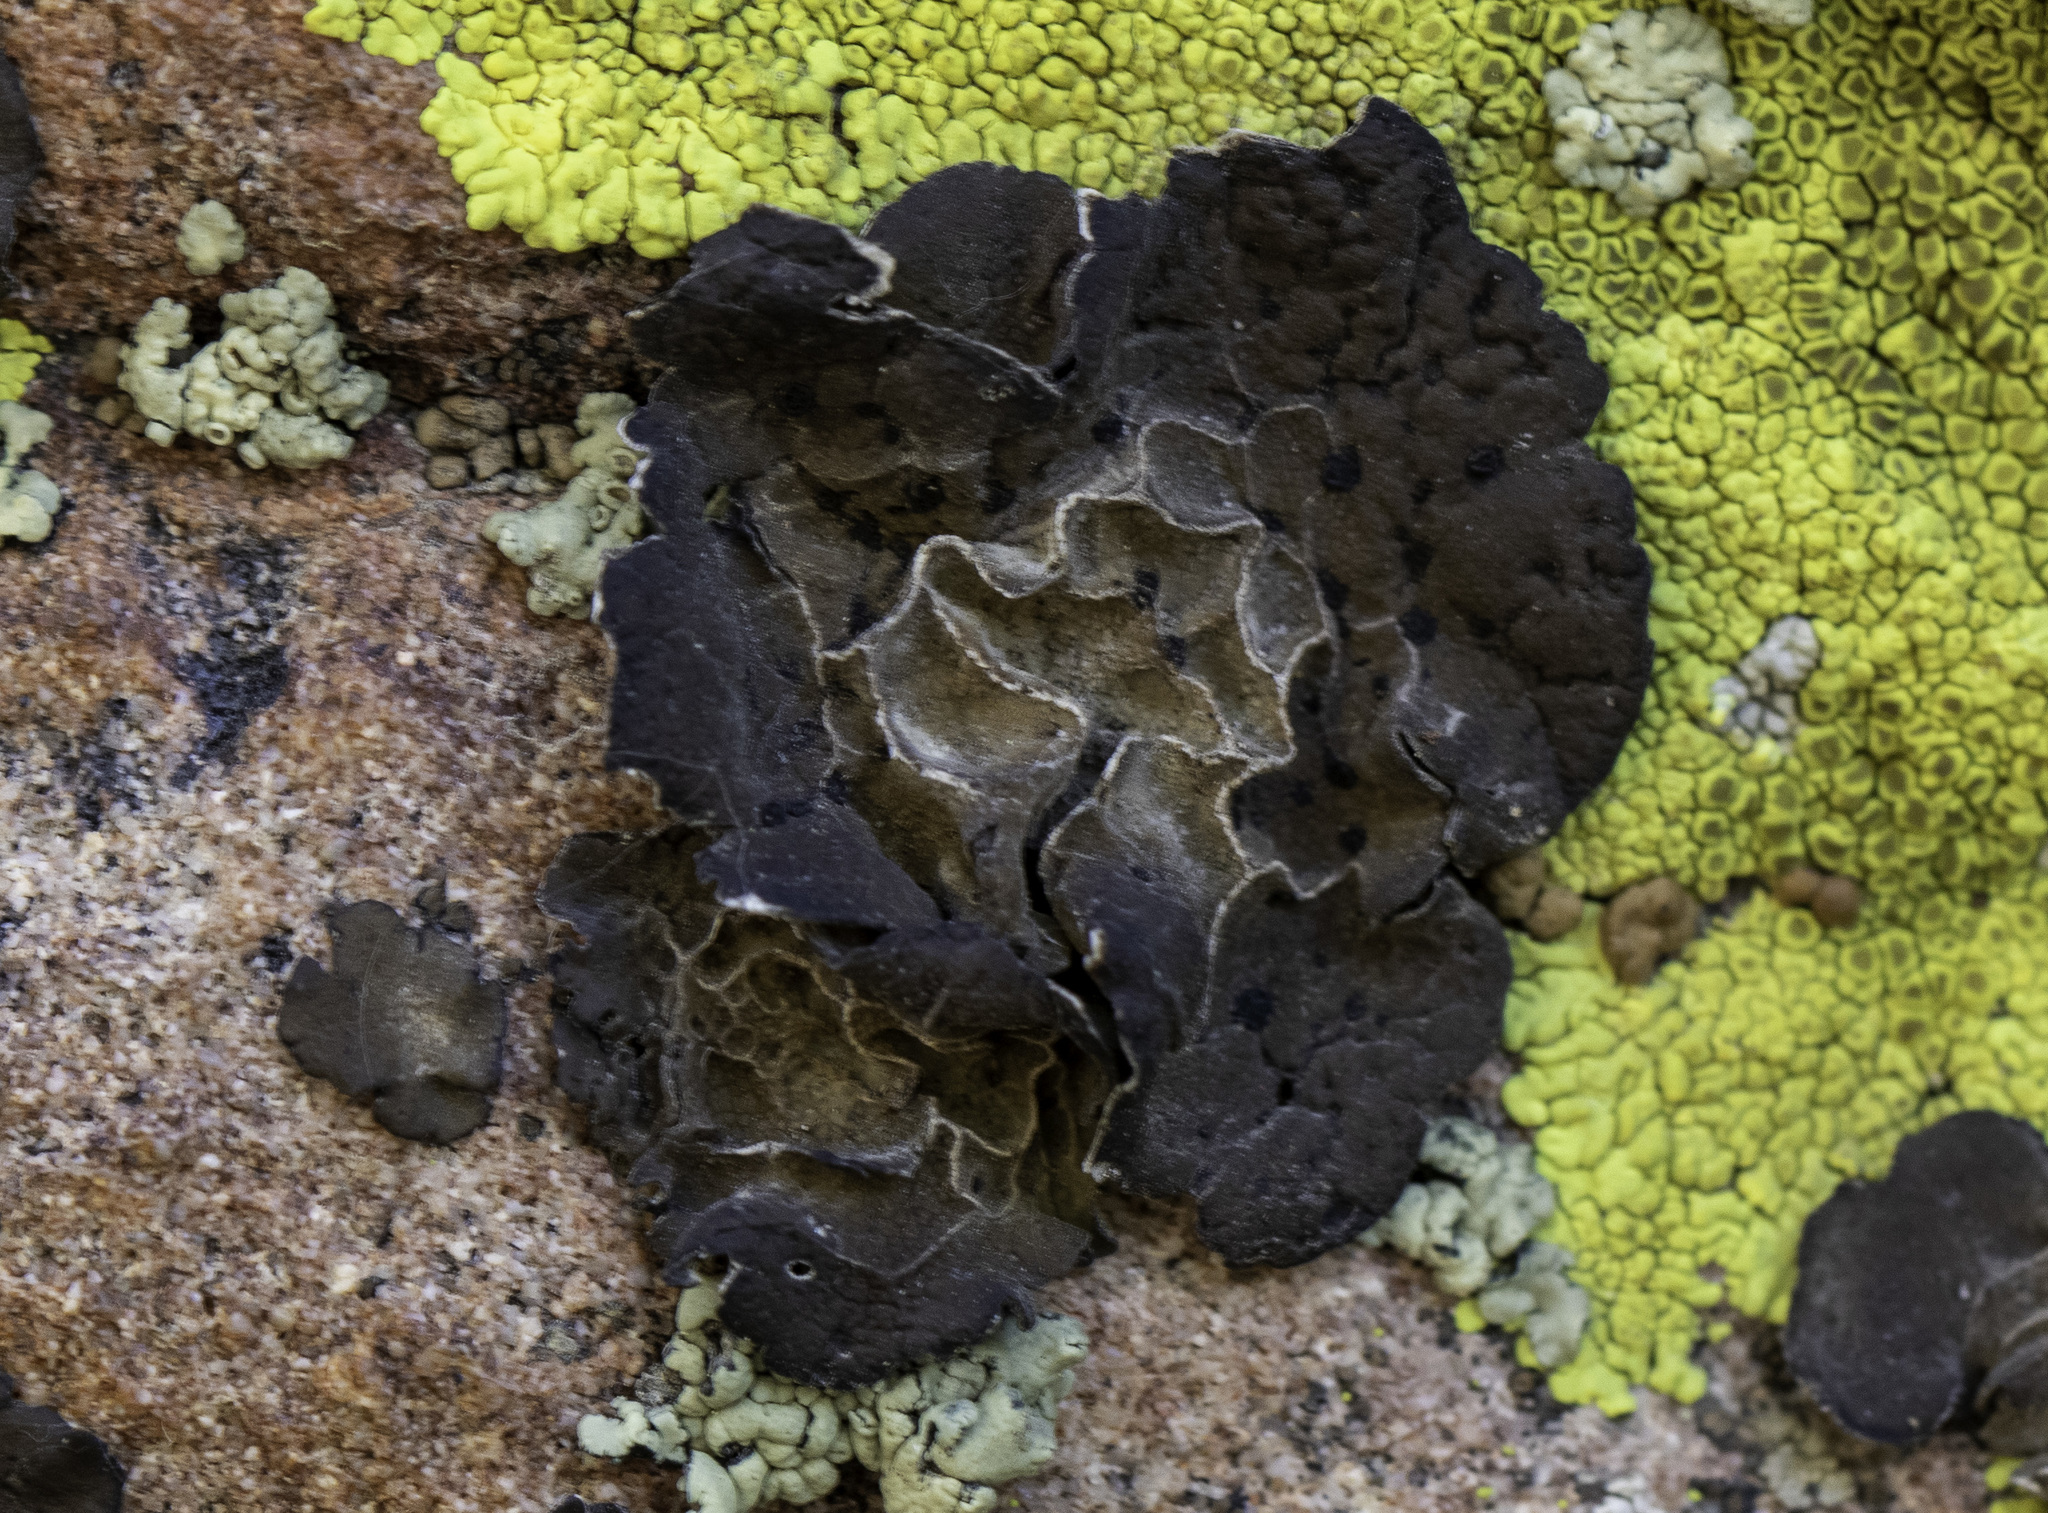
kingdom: Fungi
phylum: Ascomycota
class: Lecanoromycetes
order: Umbilicariales
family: Umbilicariaceae
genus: Umbilicaria
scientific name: Umbilicaria phaea
